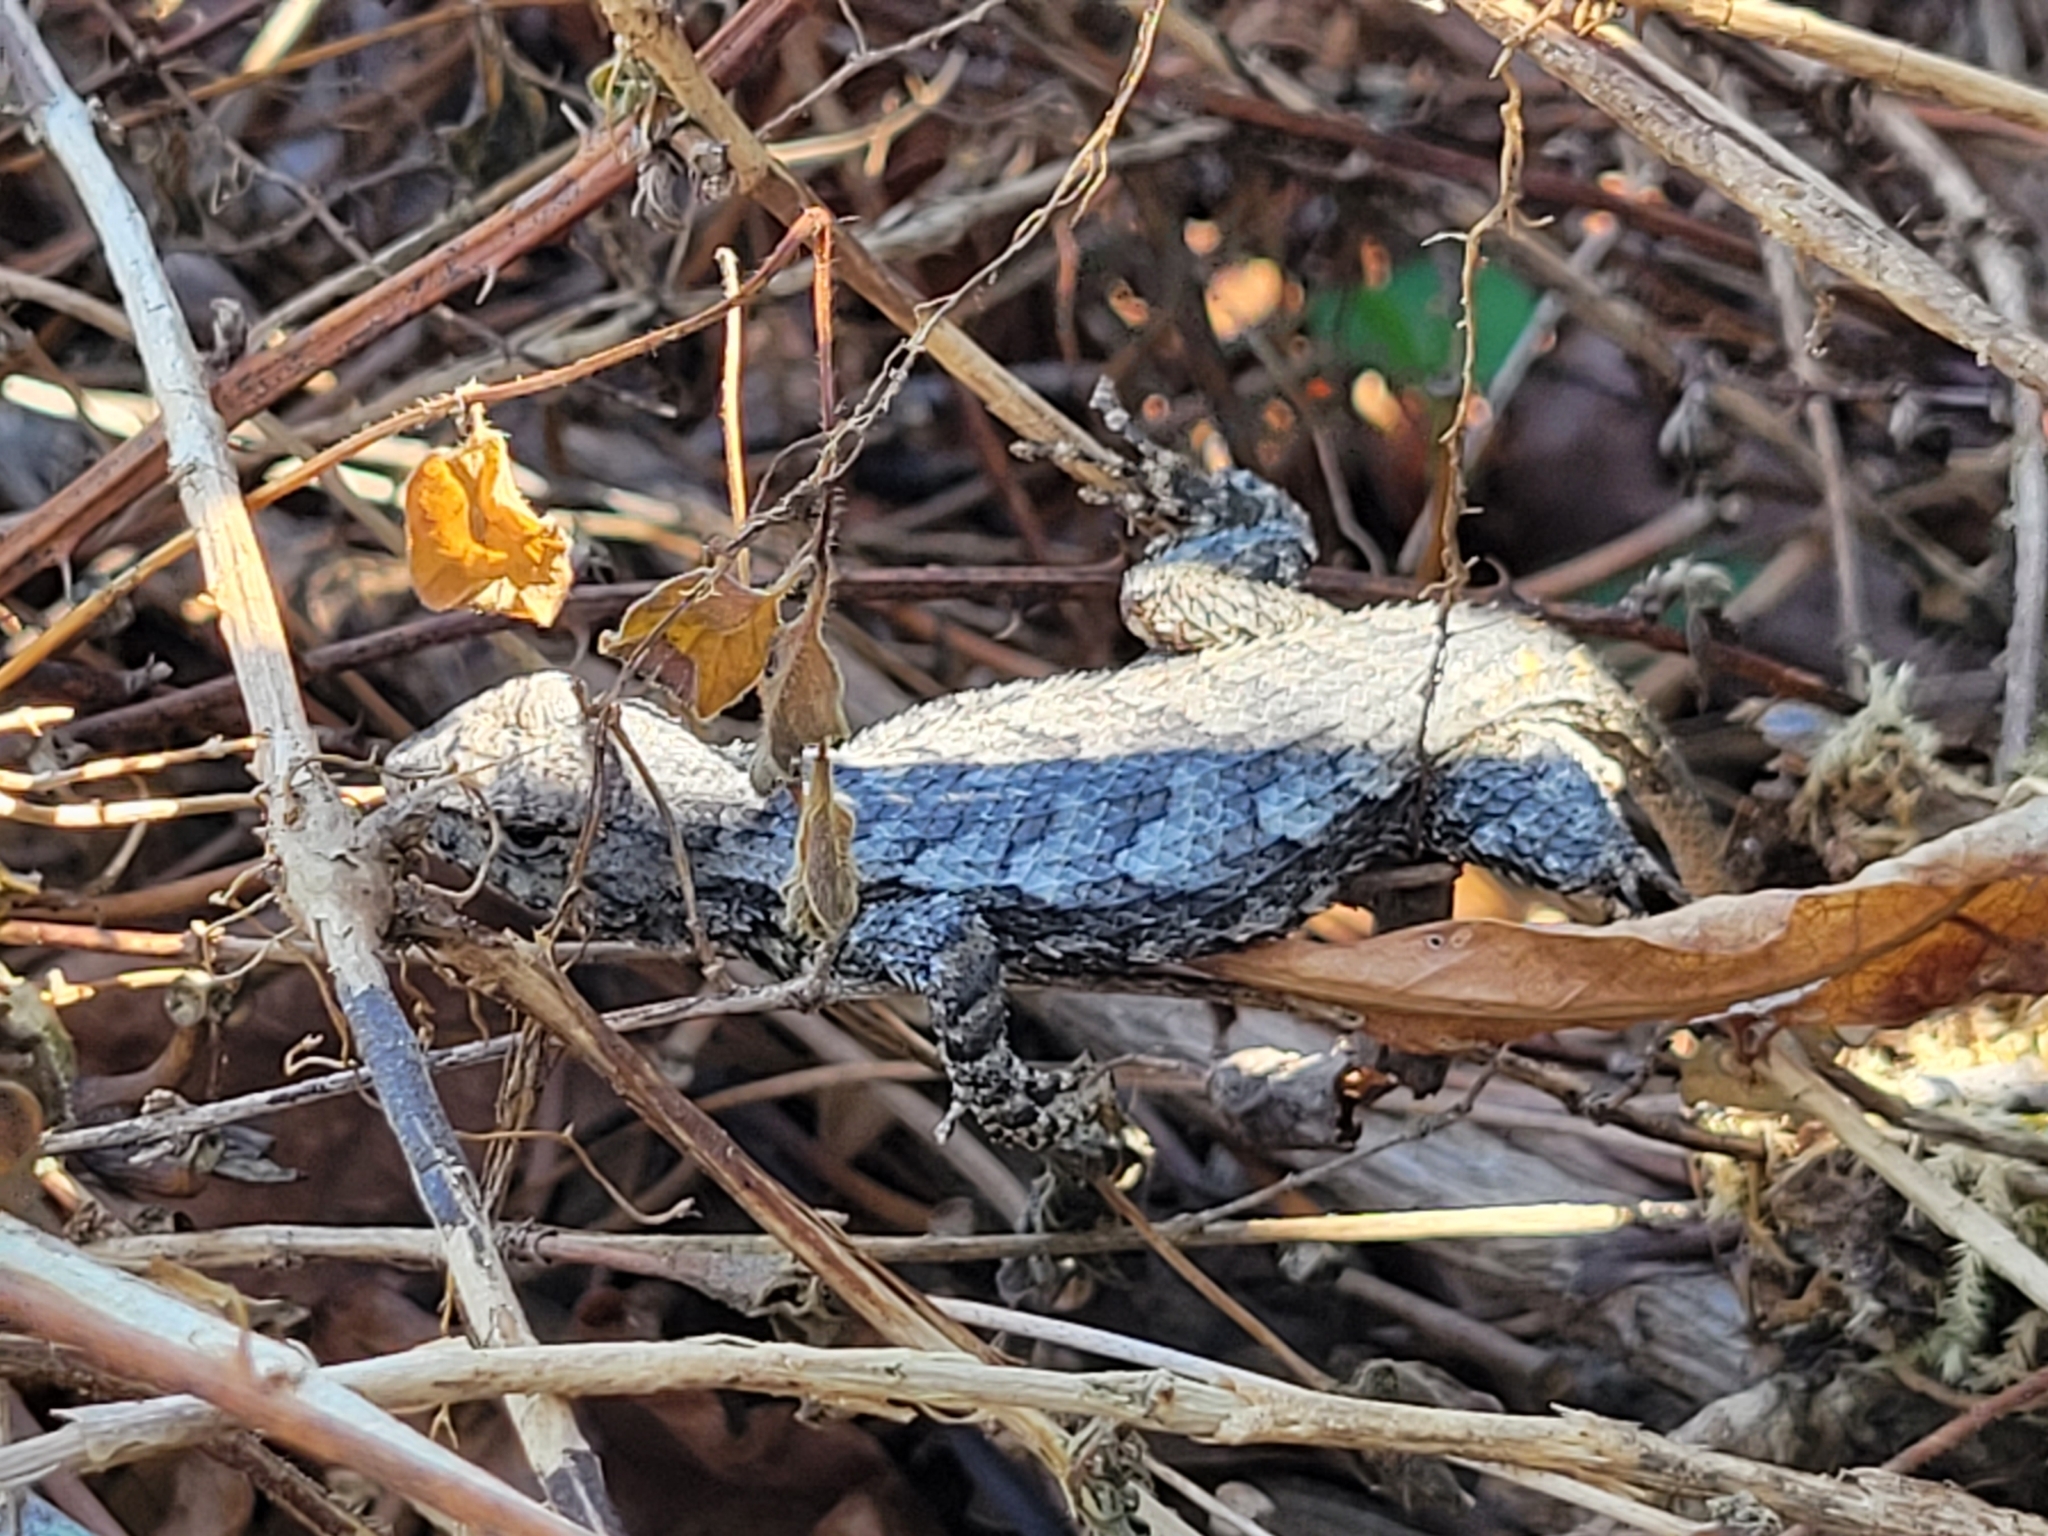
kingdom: Animalia
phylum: Chordata
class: Squamata
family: Phrynosomatidae
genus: Sceloporus
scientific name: Sceloporus undulatus
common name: Eastern fence lizard
